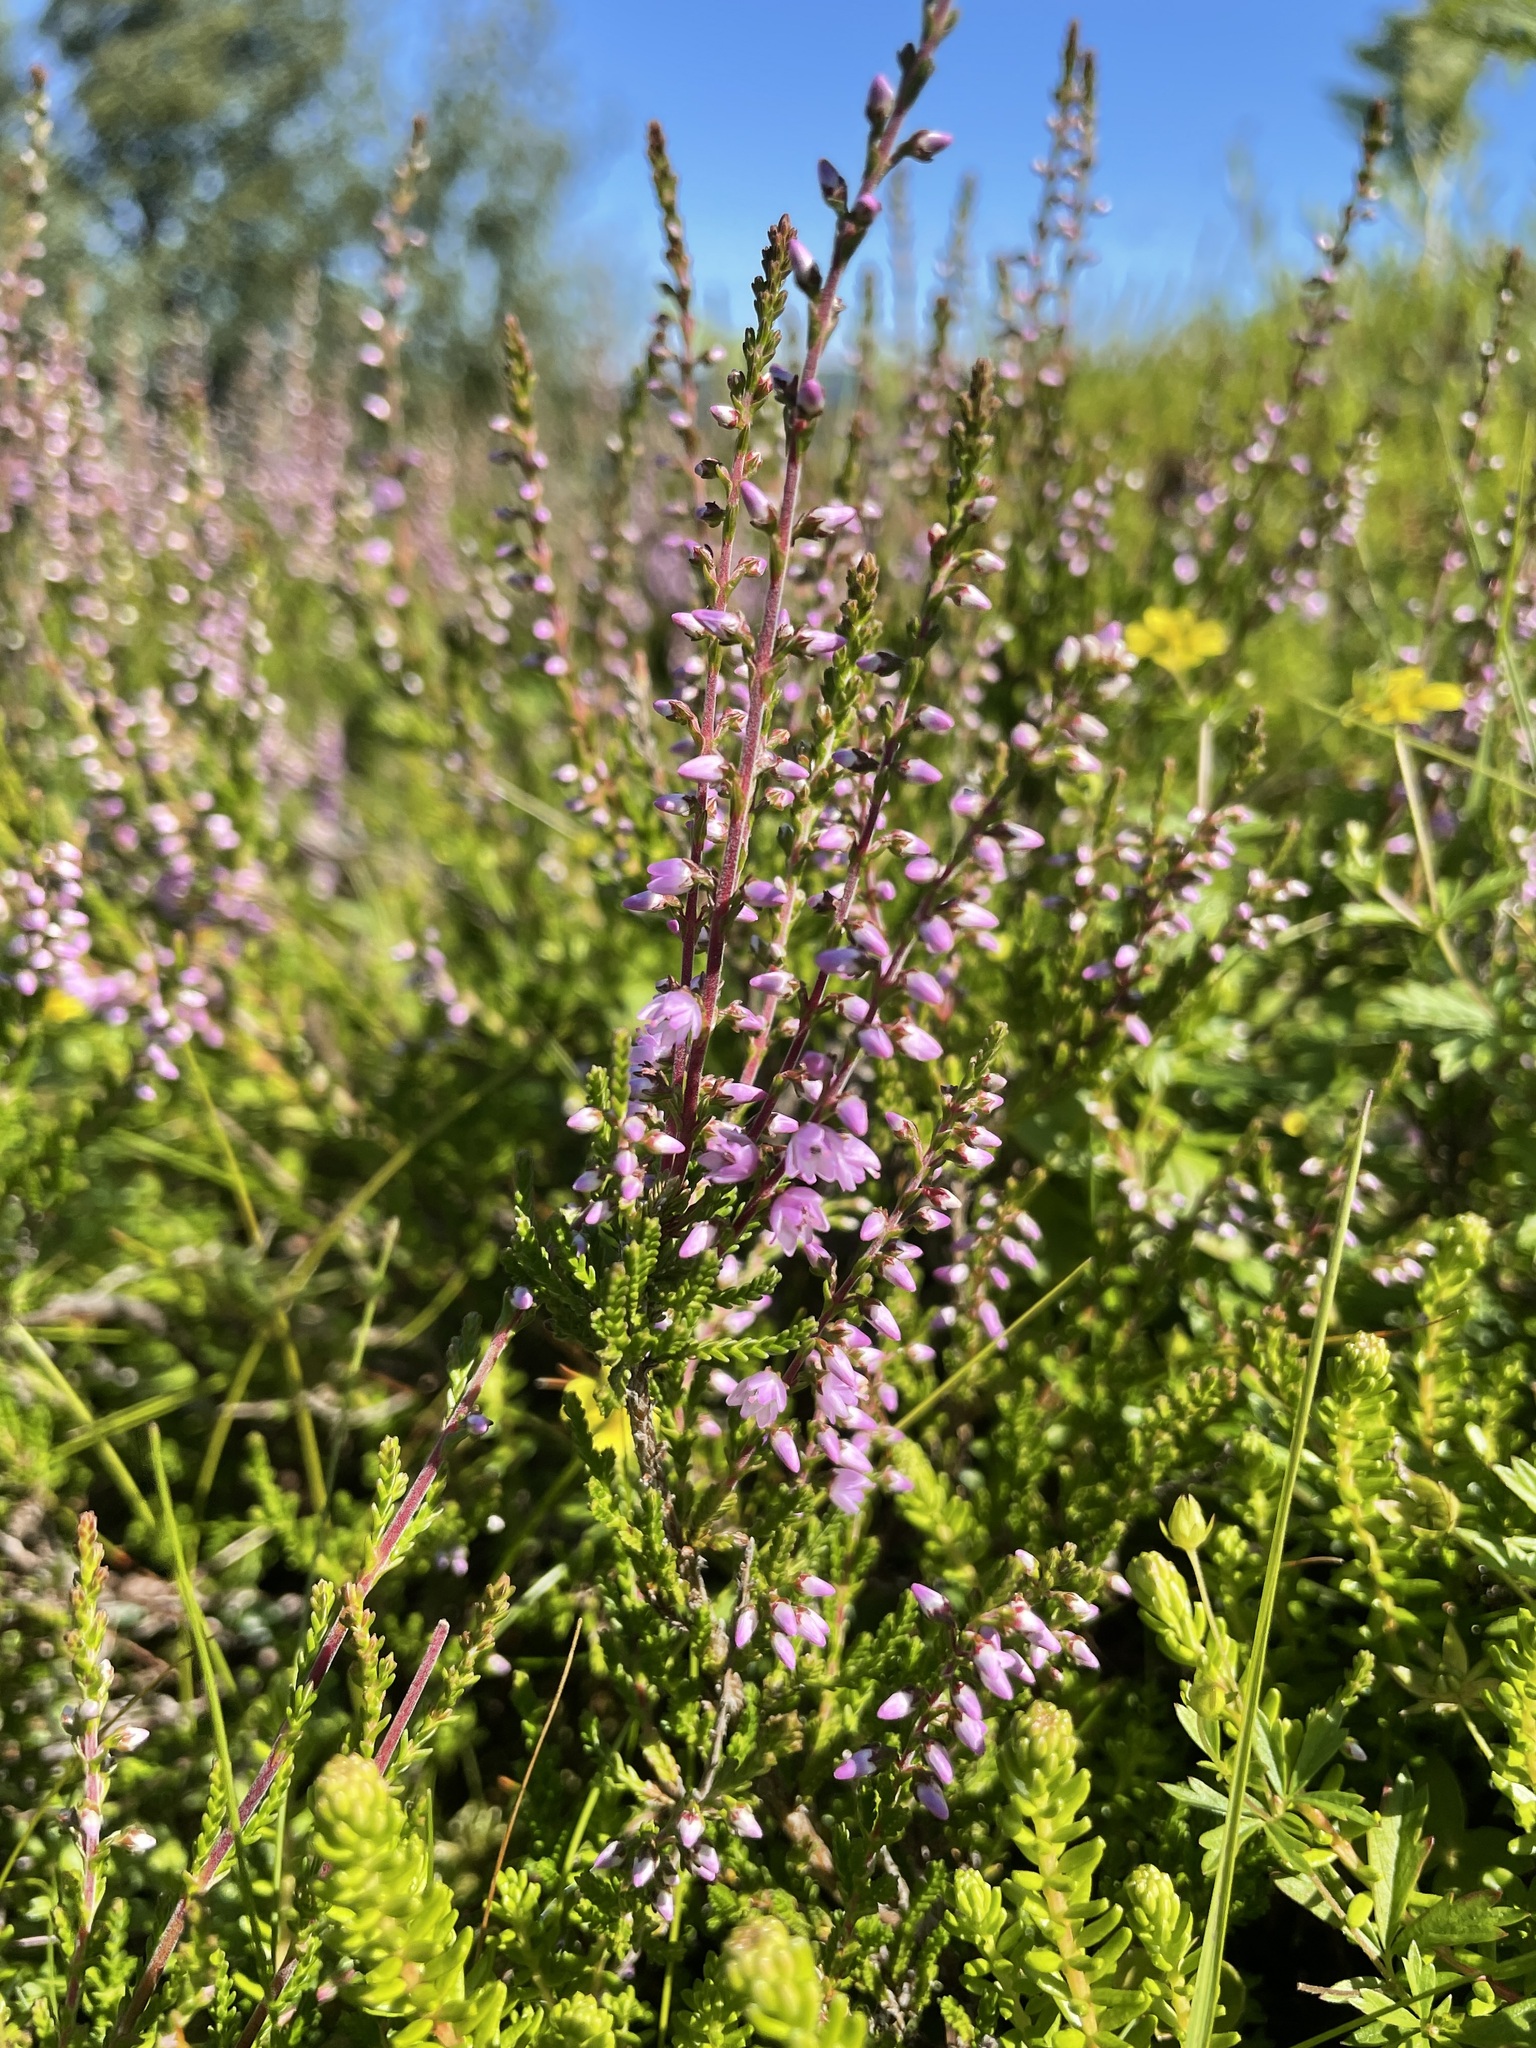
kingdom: Plantae
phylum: Tracheophyta
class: Magnoliopsida
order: Ericales
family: Ericaceae
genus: Calluna
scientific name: Calluna vulgaris
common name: Heather
